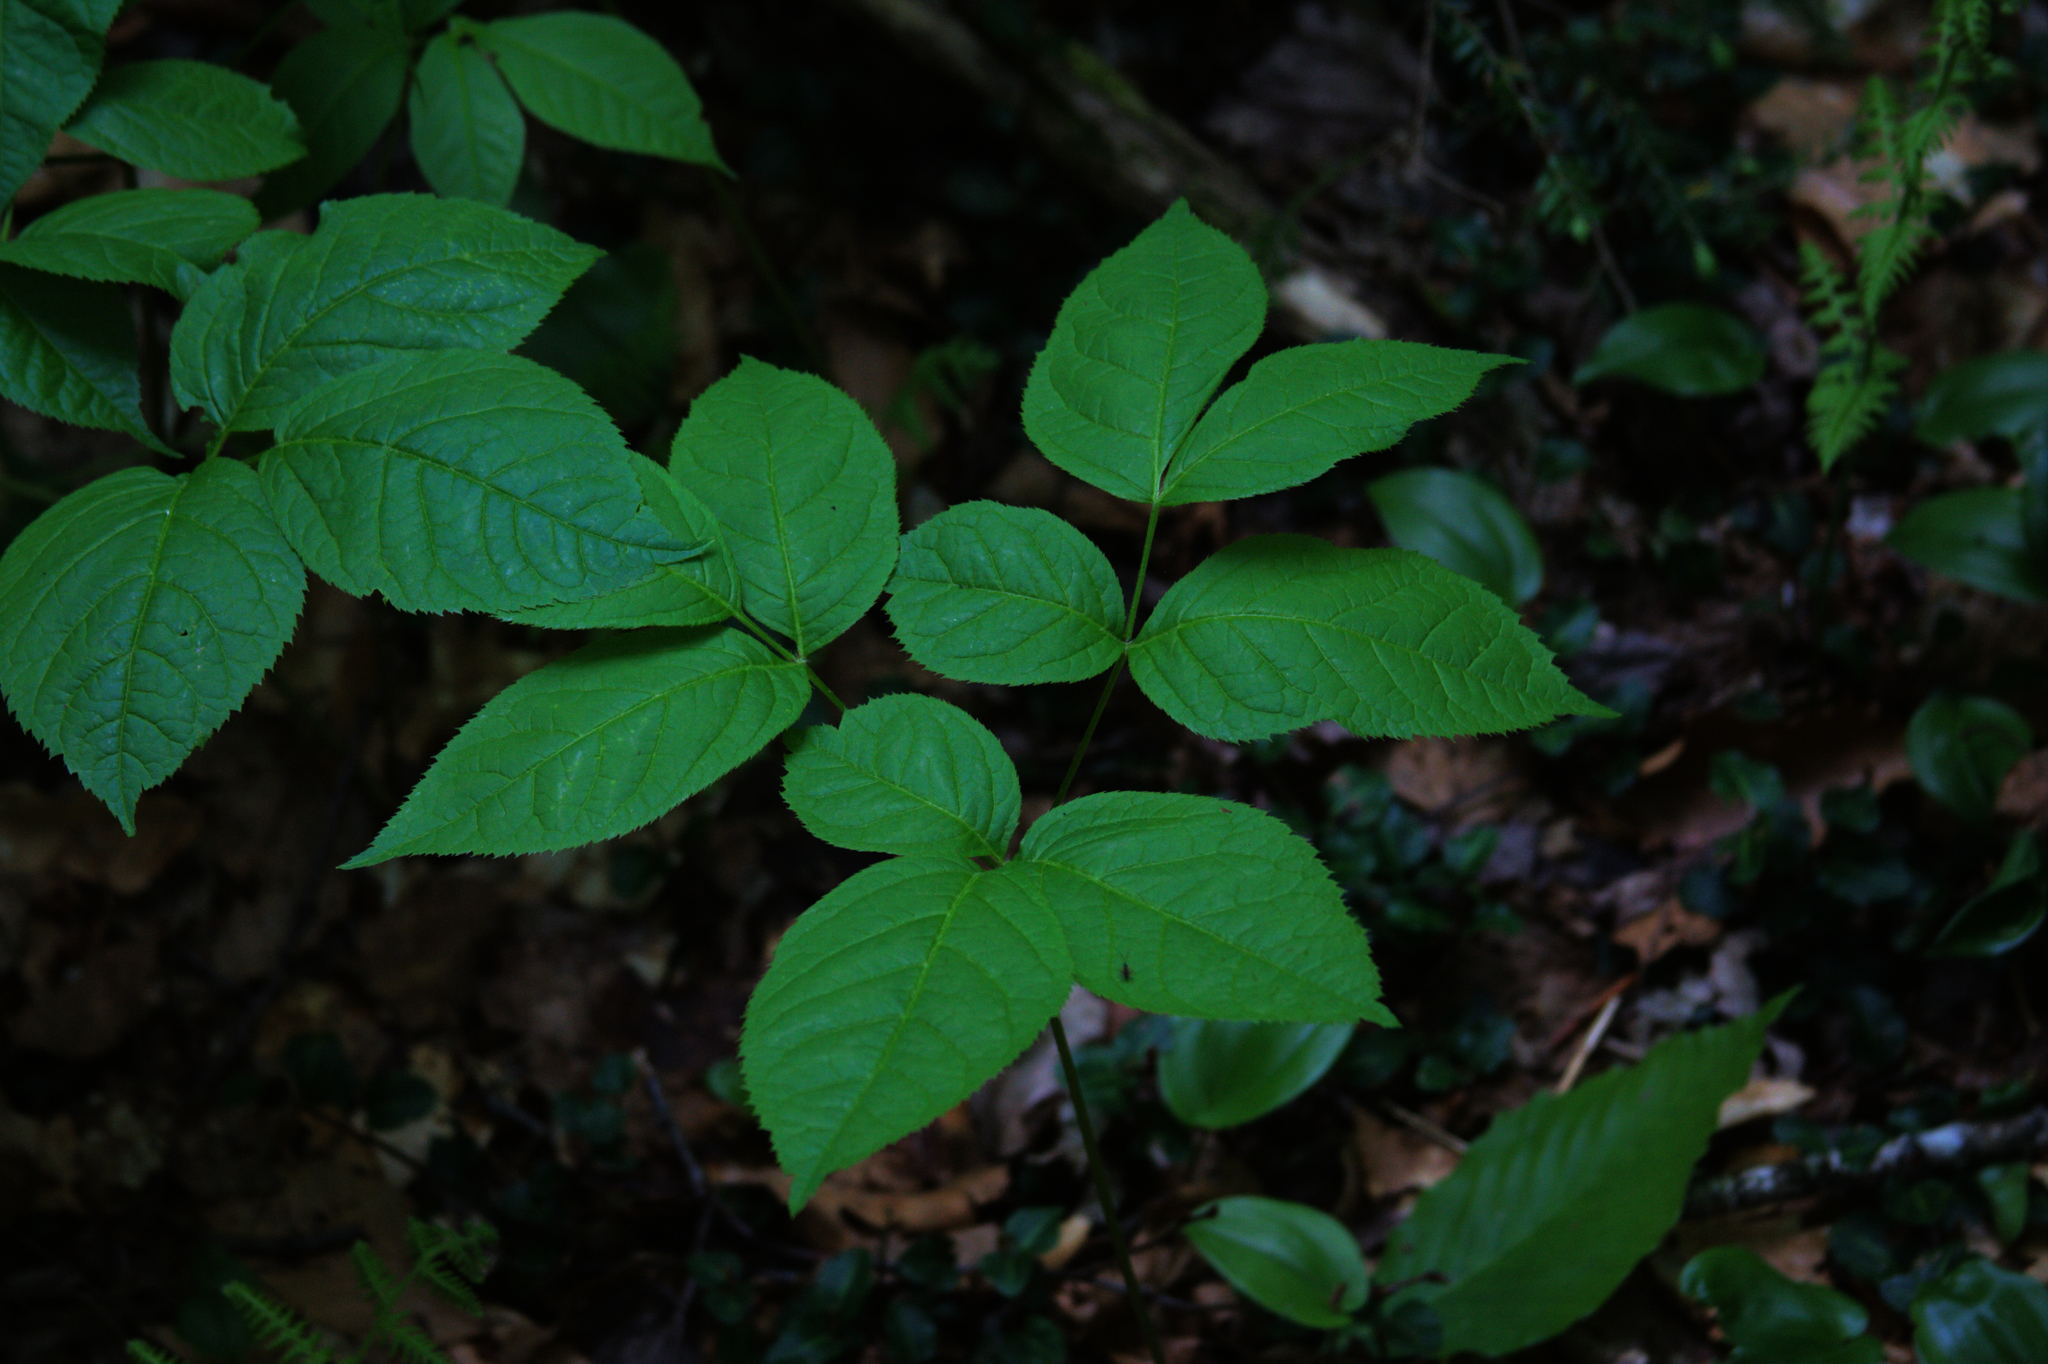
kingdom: Plantae
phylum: Tracheophyta
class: Magnoliopsida
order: Apiales
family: Araliaceae
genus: Aralia
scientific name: Aralia nudicaulis
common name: Wild sarsaparilla
